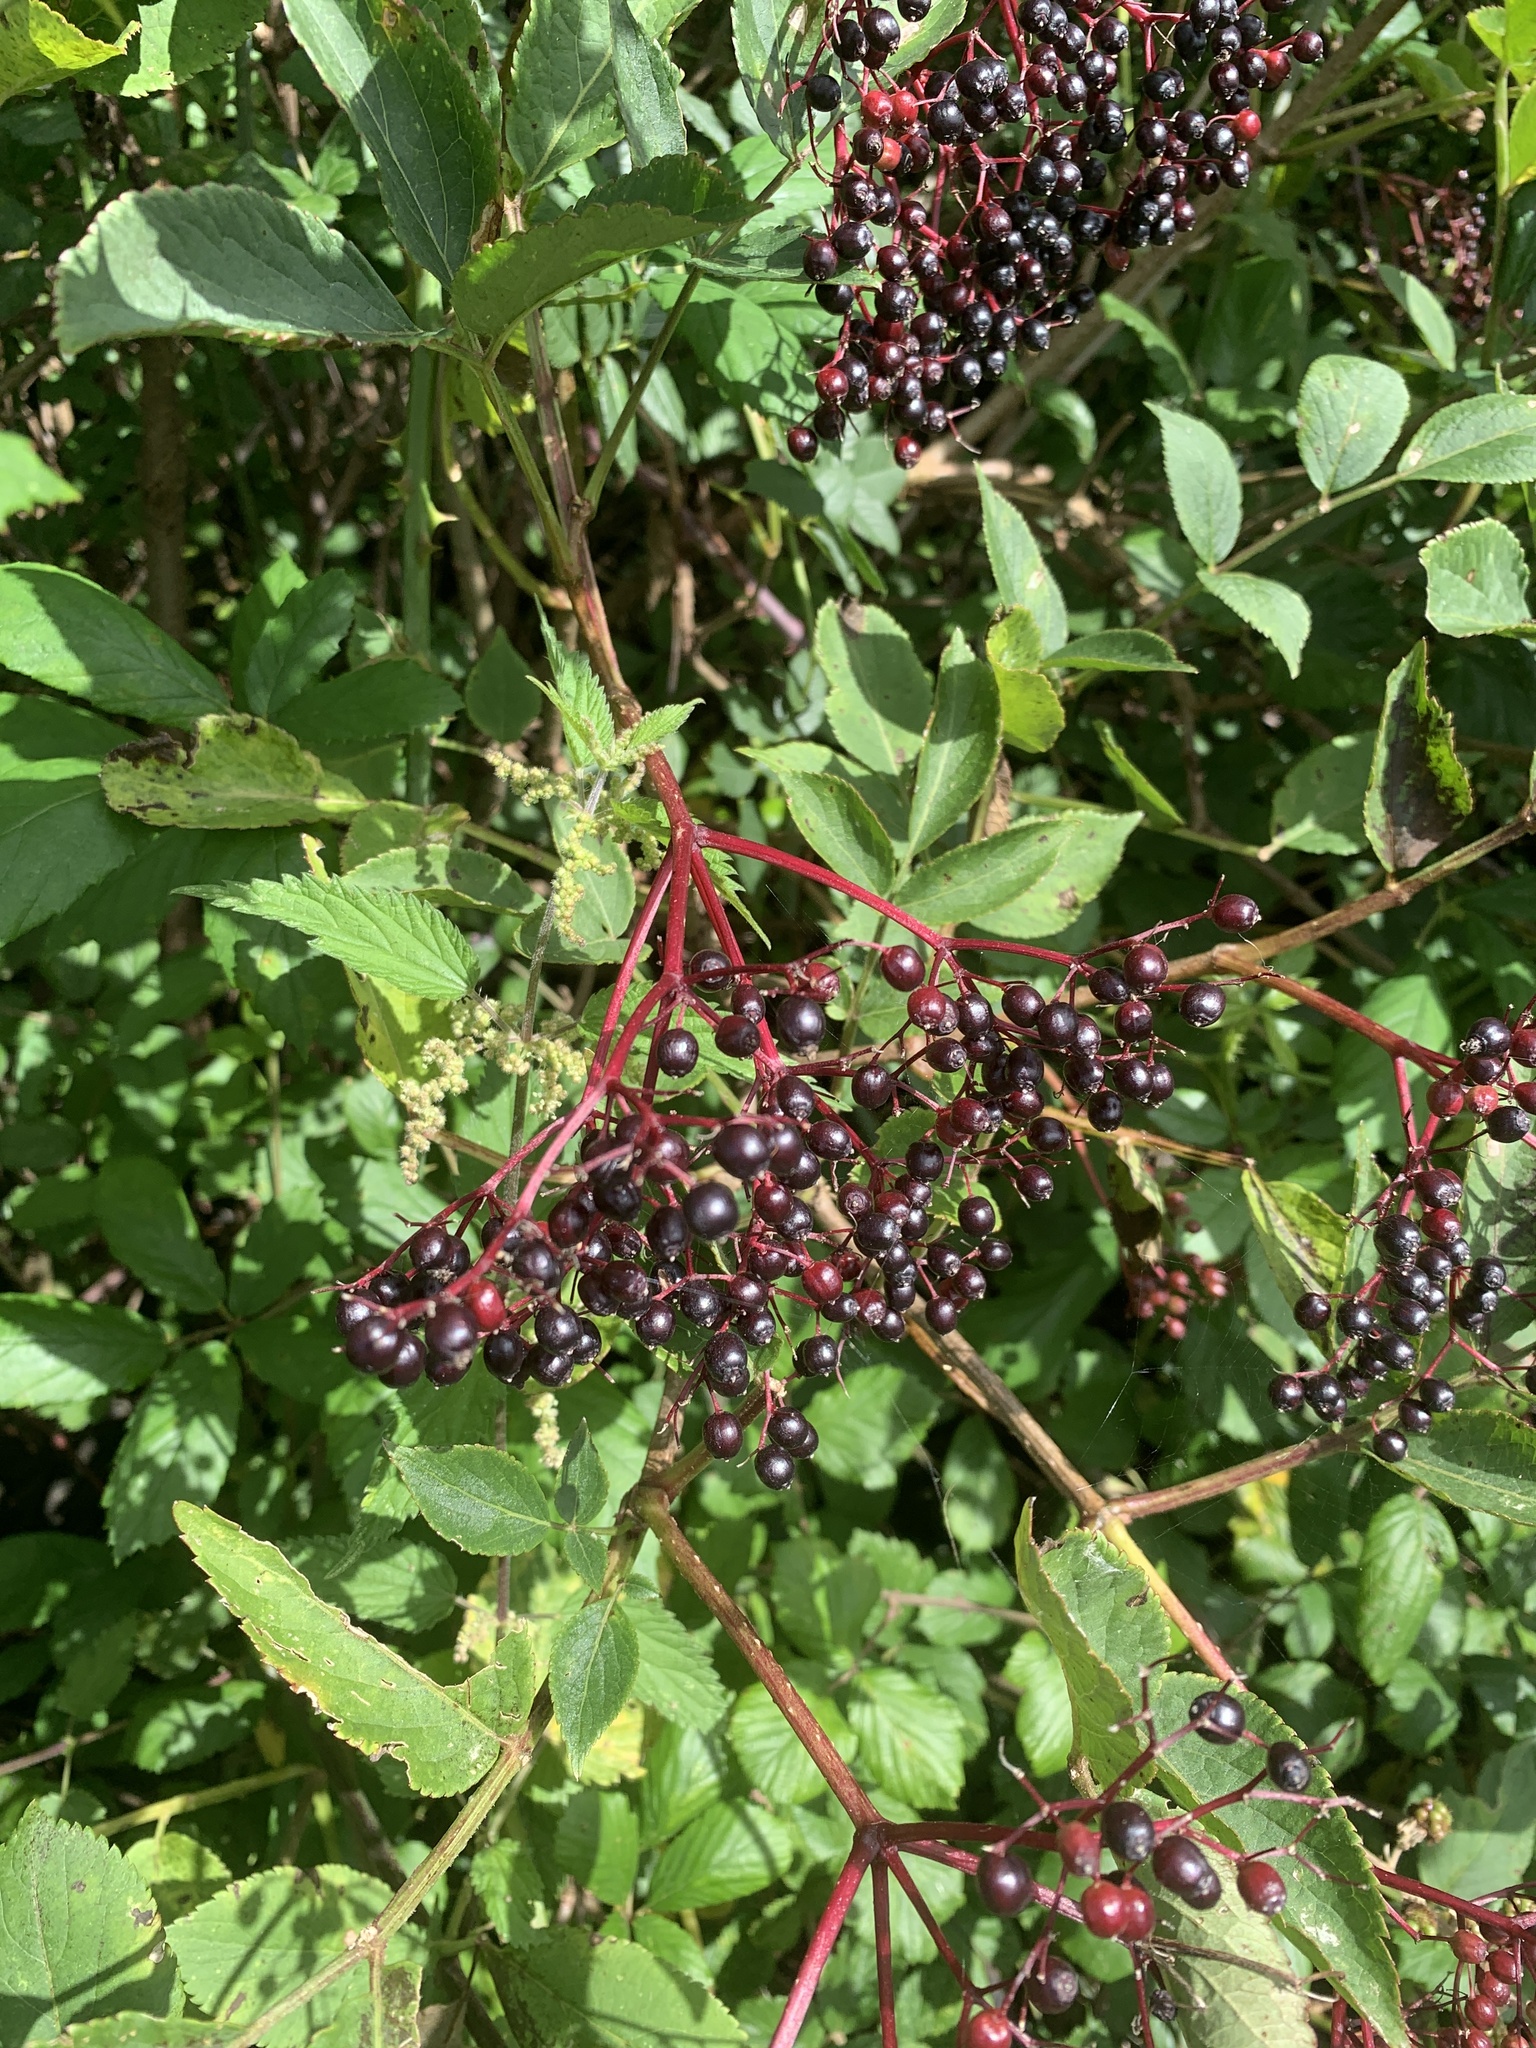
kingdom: Plantae
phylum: Tracheophyta
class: Magnoliopsida
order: Dipsacales
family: Viburnaceae
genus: Sambucus
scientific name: Sambucus nigra
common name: Elder
